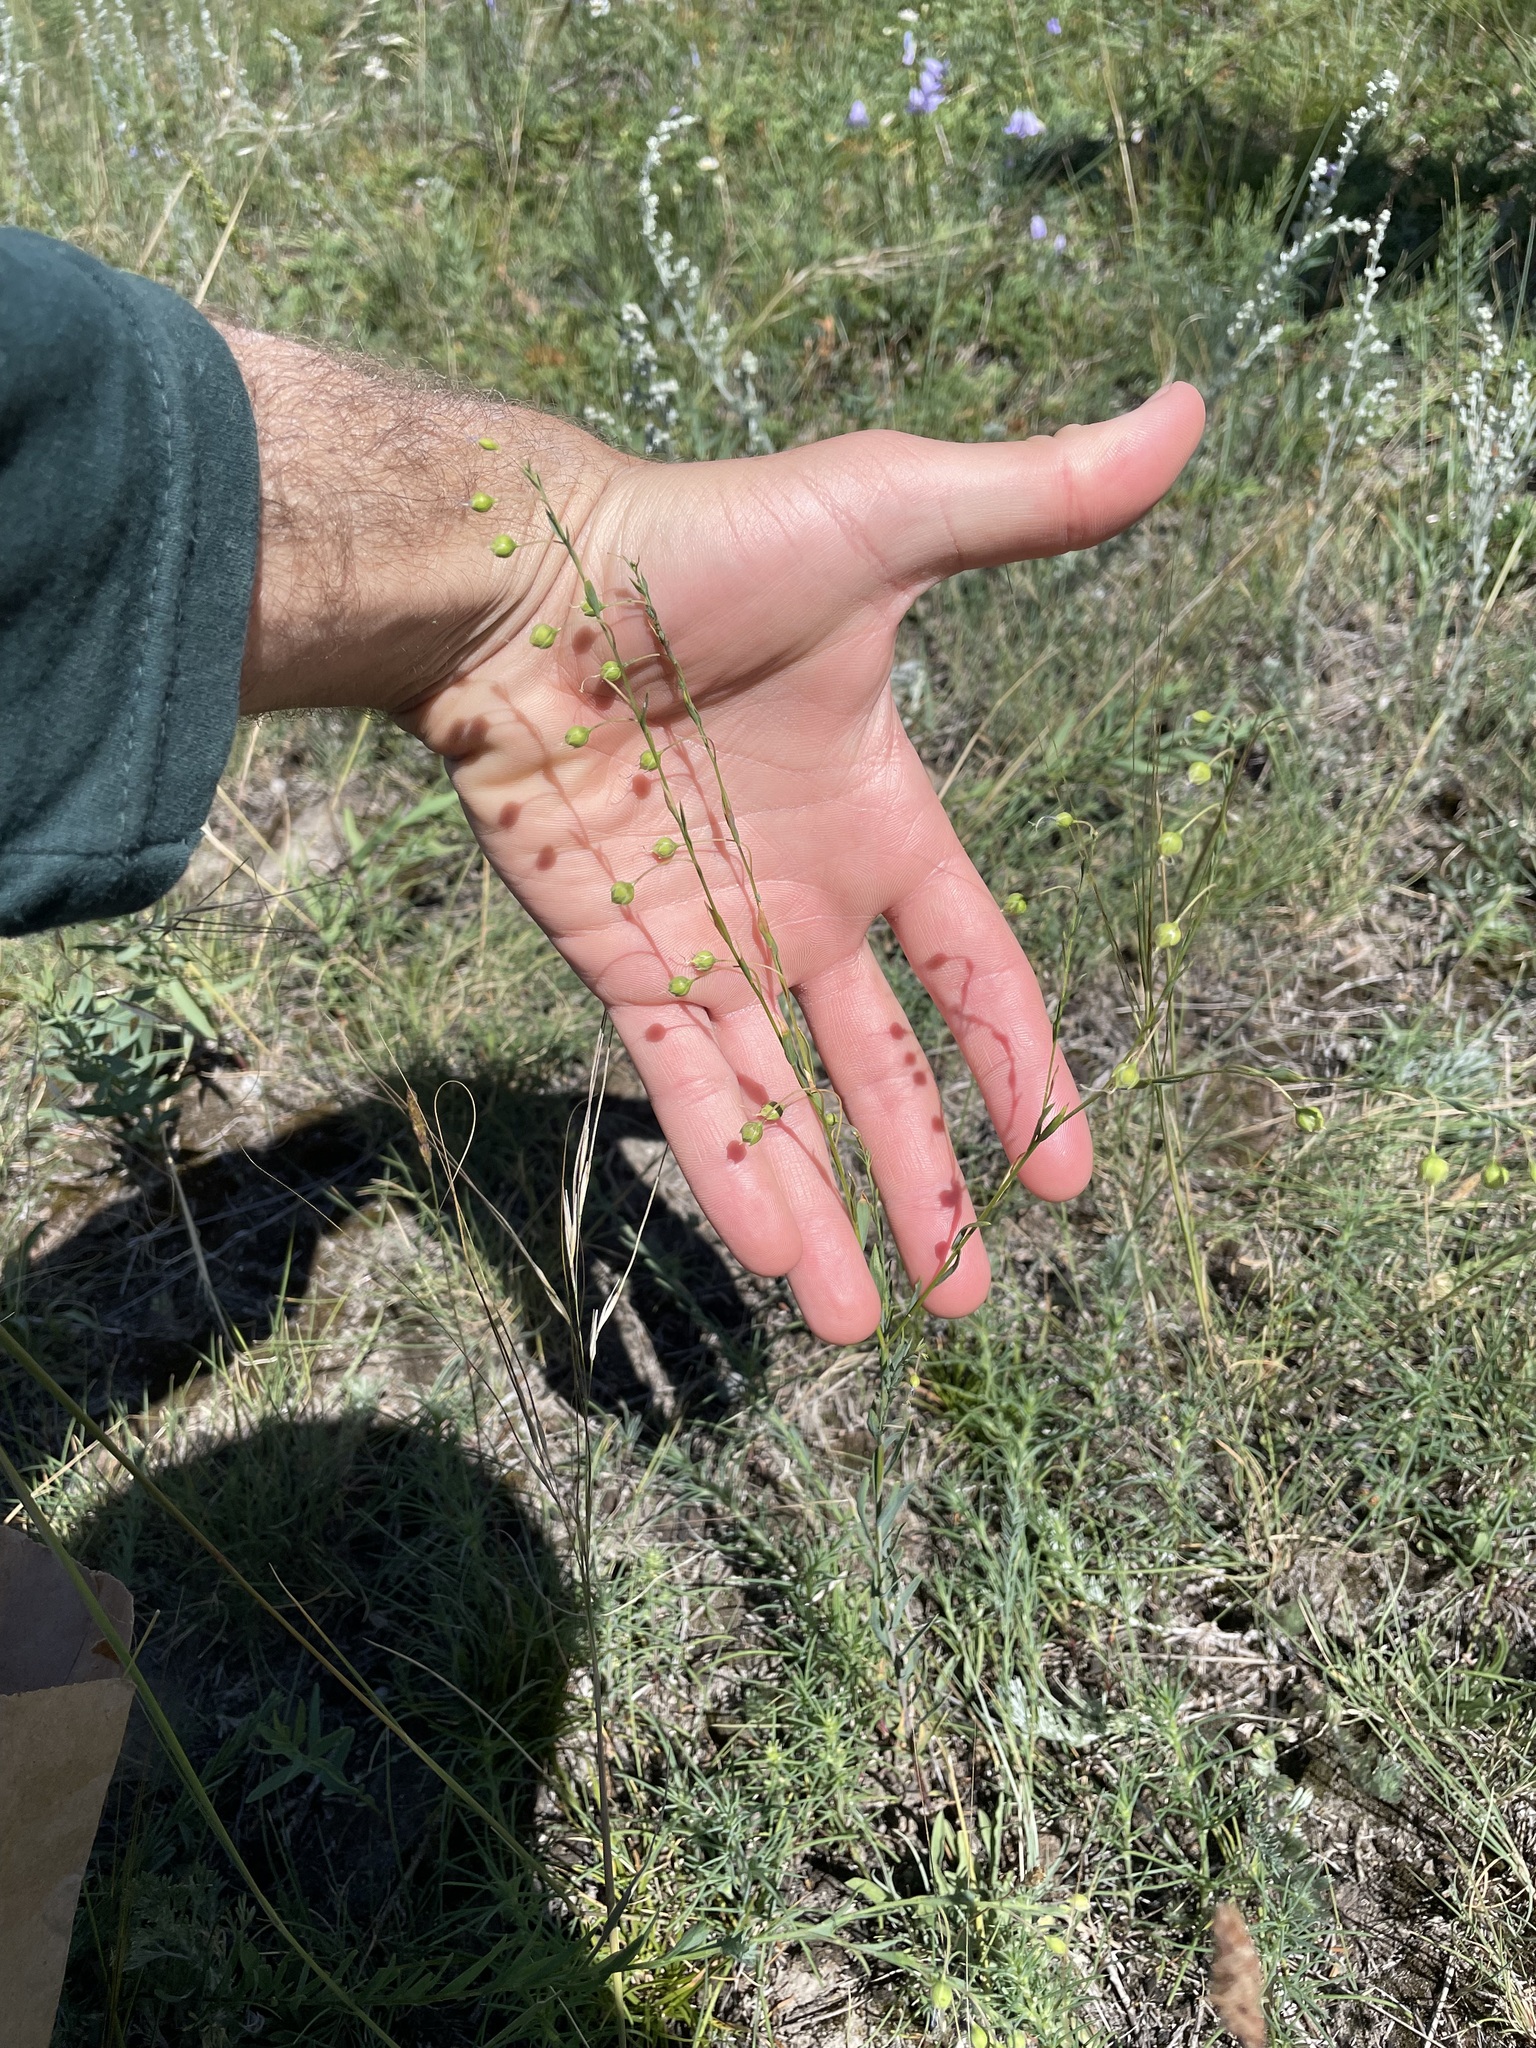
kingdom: Plantae
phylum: Tracheophyta
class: Magnoliopsida
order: Malpighiales
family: Linaceae
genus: Linum
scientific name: Linum lewisii
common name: Prairie flax
